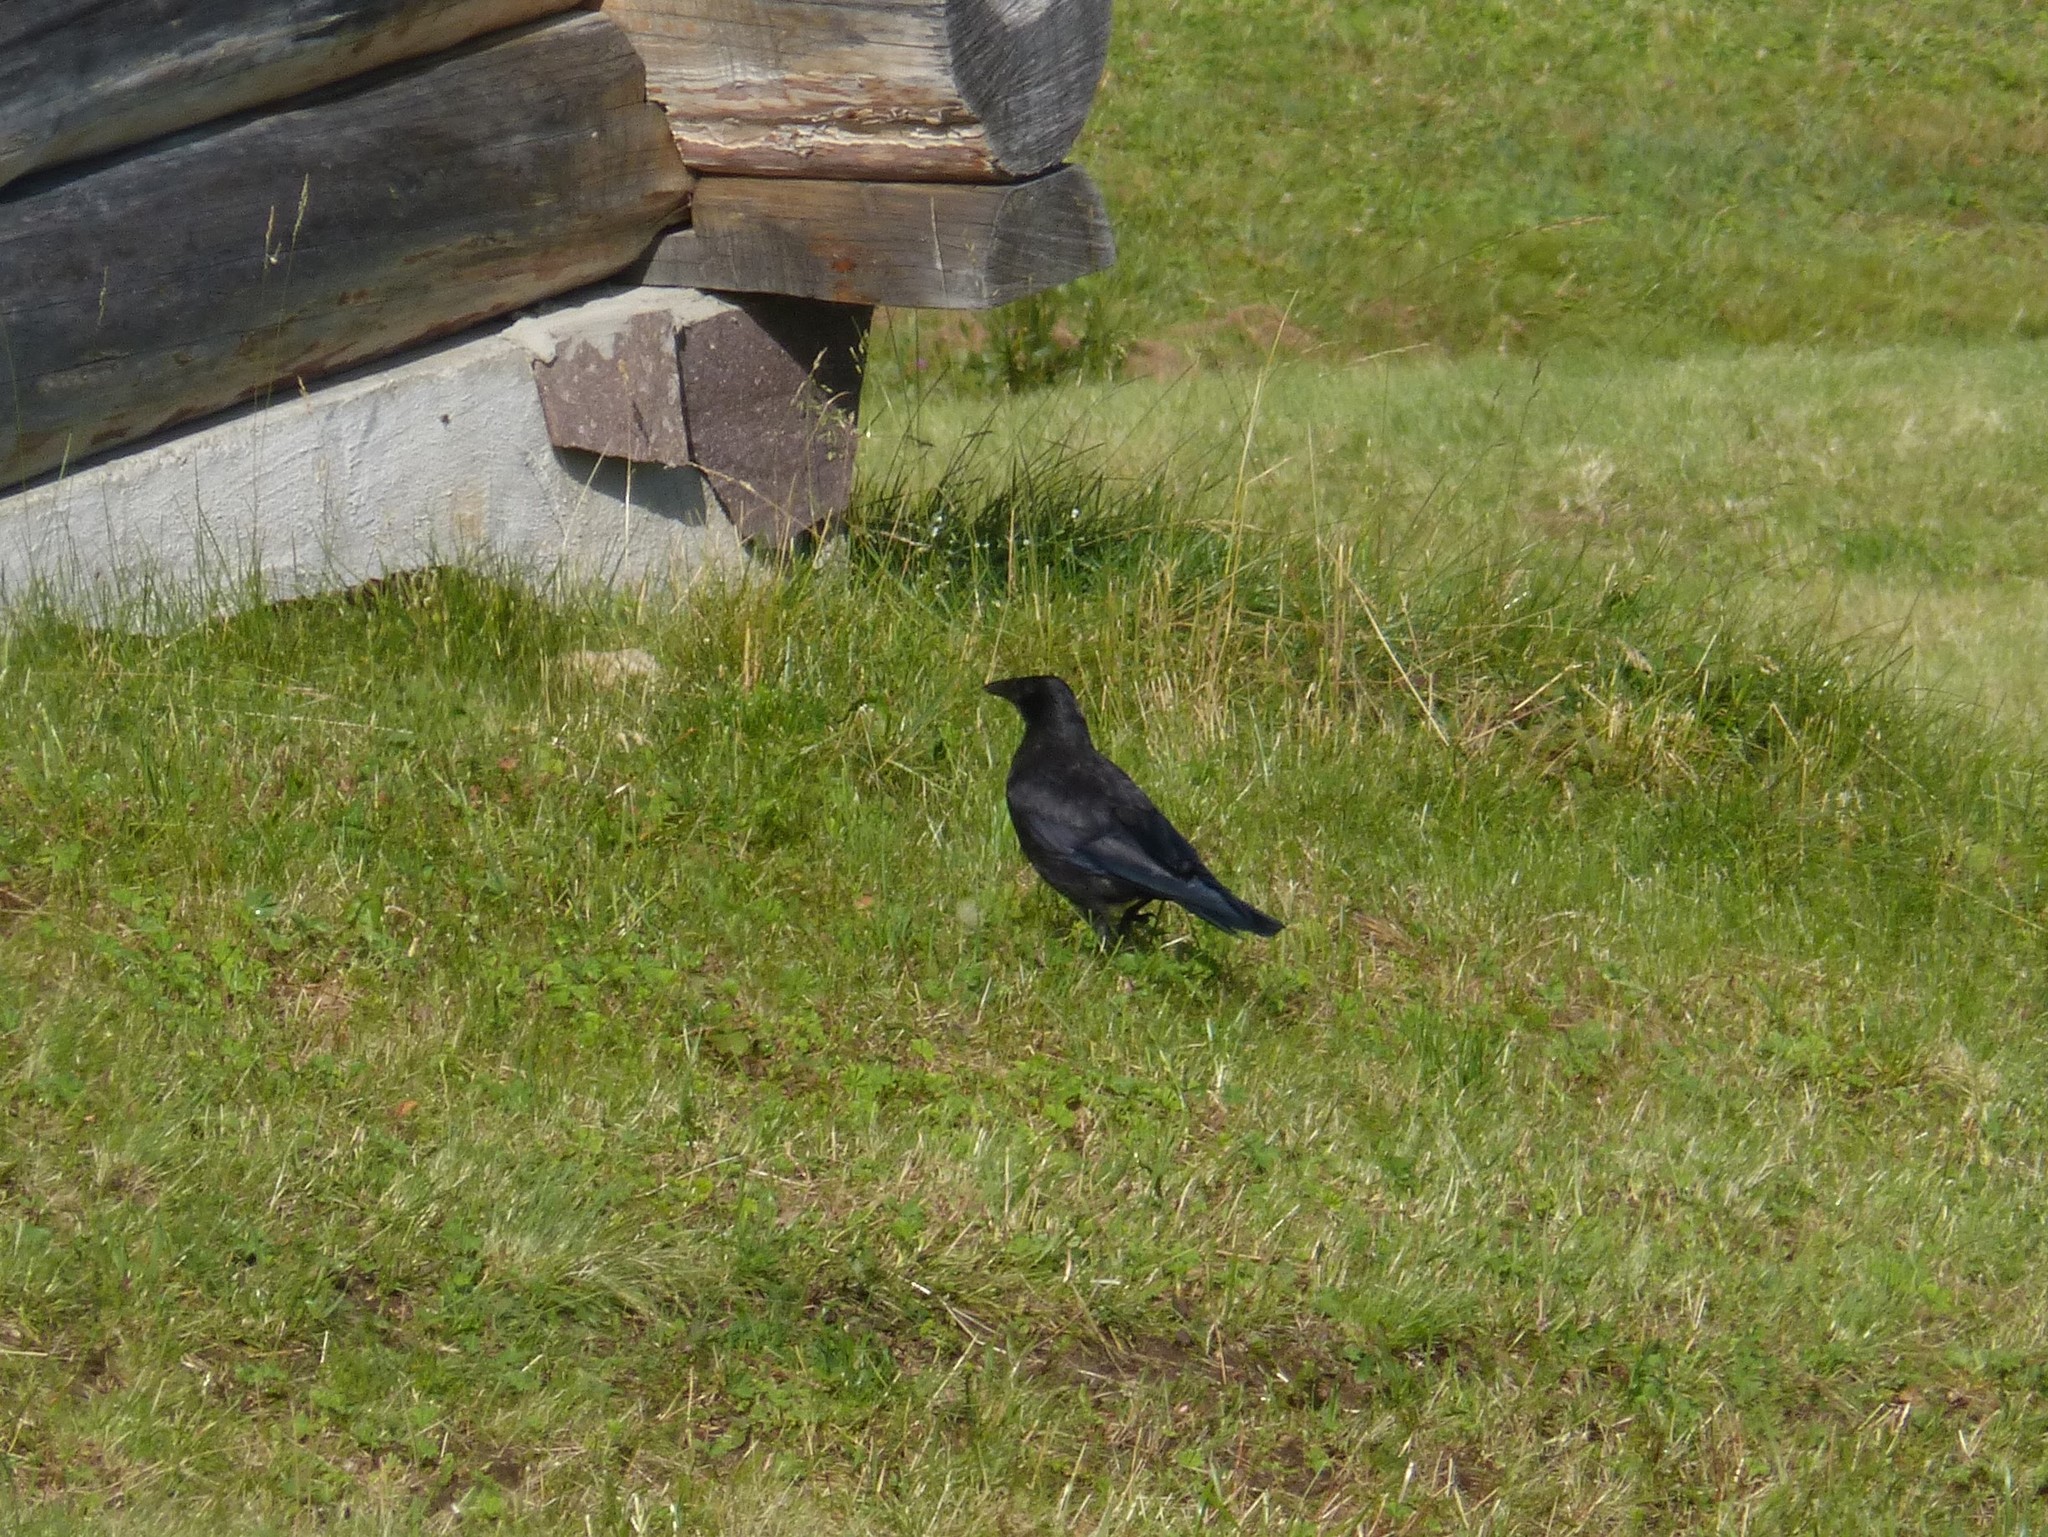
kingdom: Animalia
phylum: Chordata
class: Aves
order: Passeriformes
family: Corvidae
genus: Corvus
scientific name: Corvus corone
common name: Carrion crow
